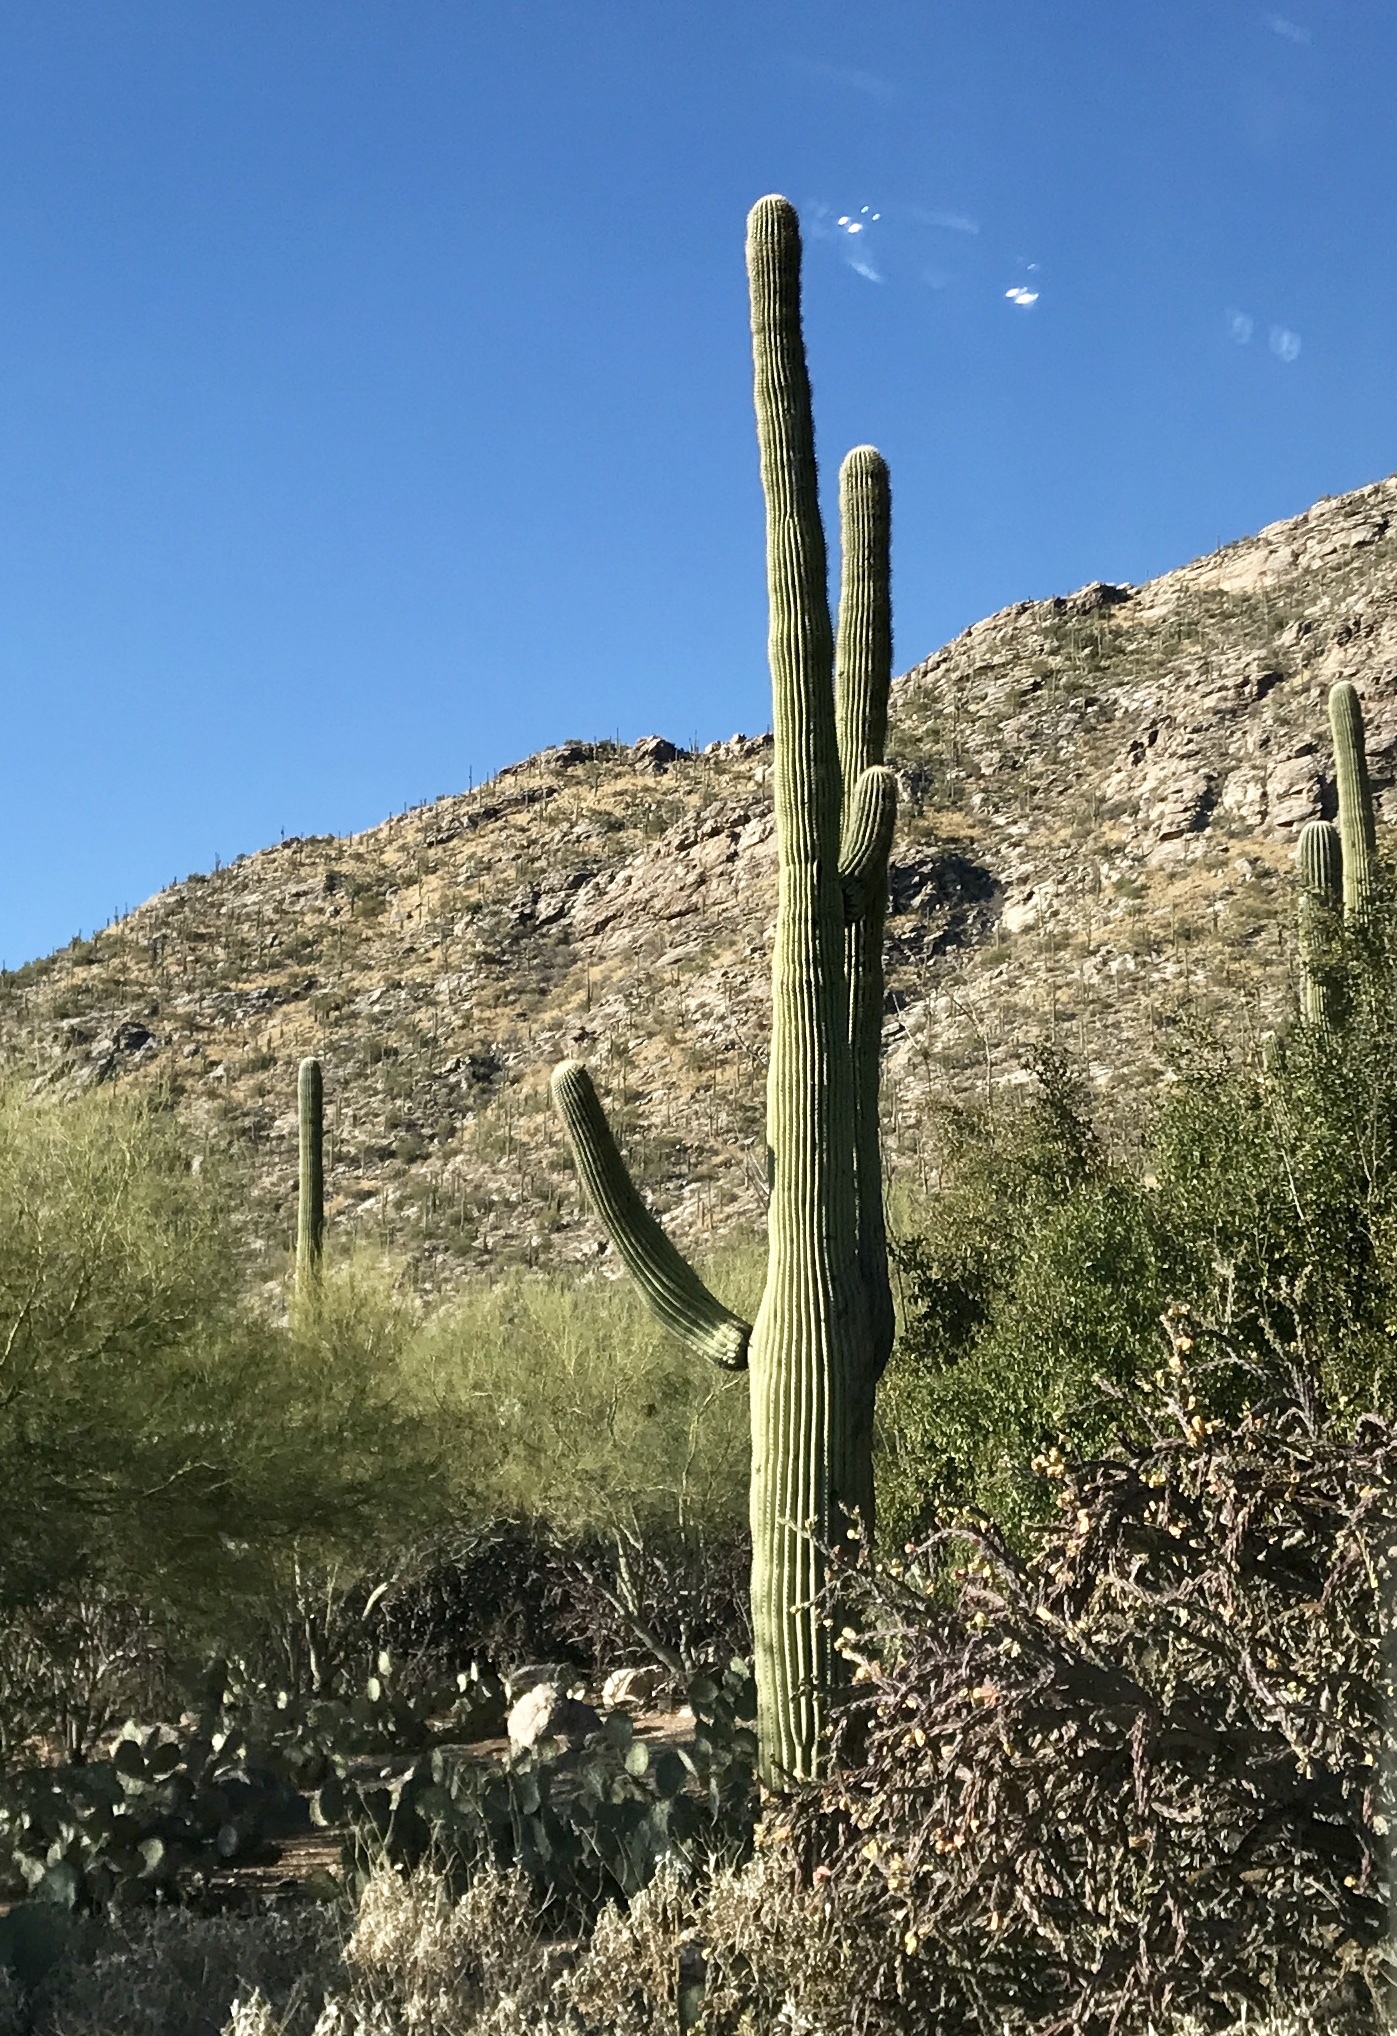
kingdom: Plantae
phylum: Tracheophyta
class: Magnoliopsida
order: Caryophyllales
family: Cactaceae
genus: Carnegiea
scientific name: Carnegiea gigantea
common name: Saguaro
